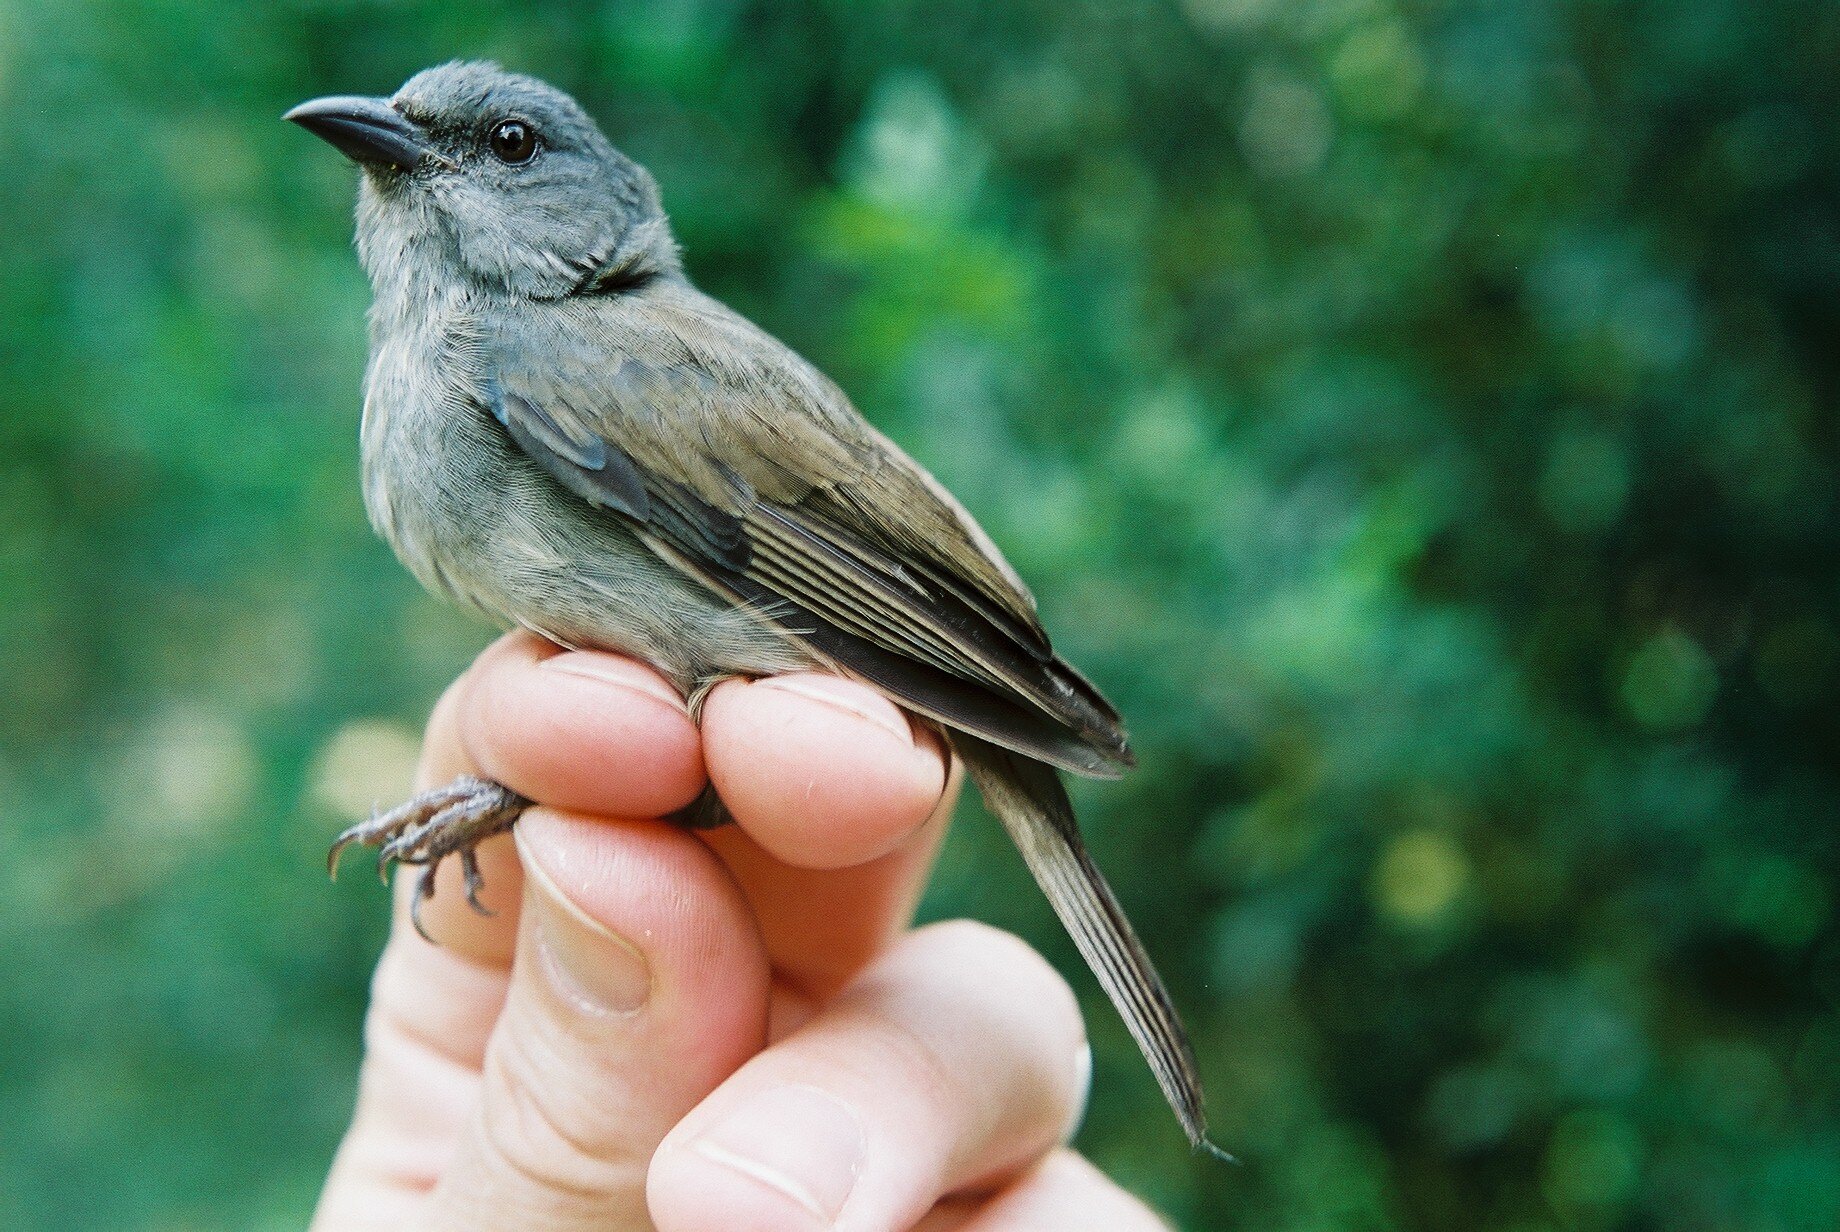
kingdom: Animalia
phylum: Chordata
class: Aves
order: Passeriformes
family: Thraupidae
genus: Euneornis
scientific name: Euneornis campestris
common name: Orangequit
